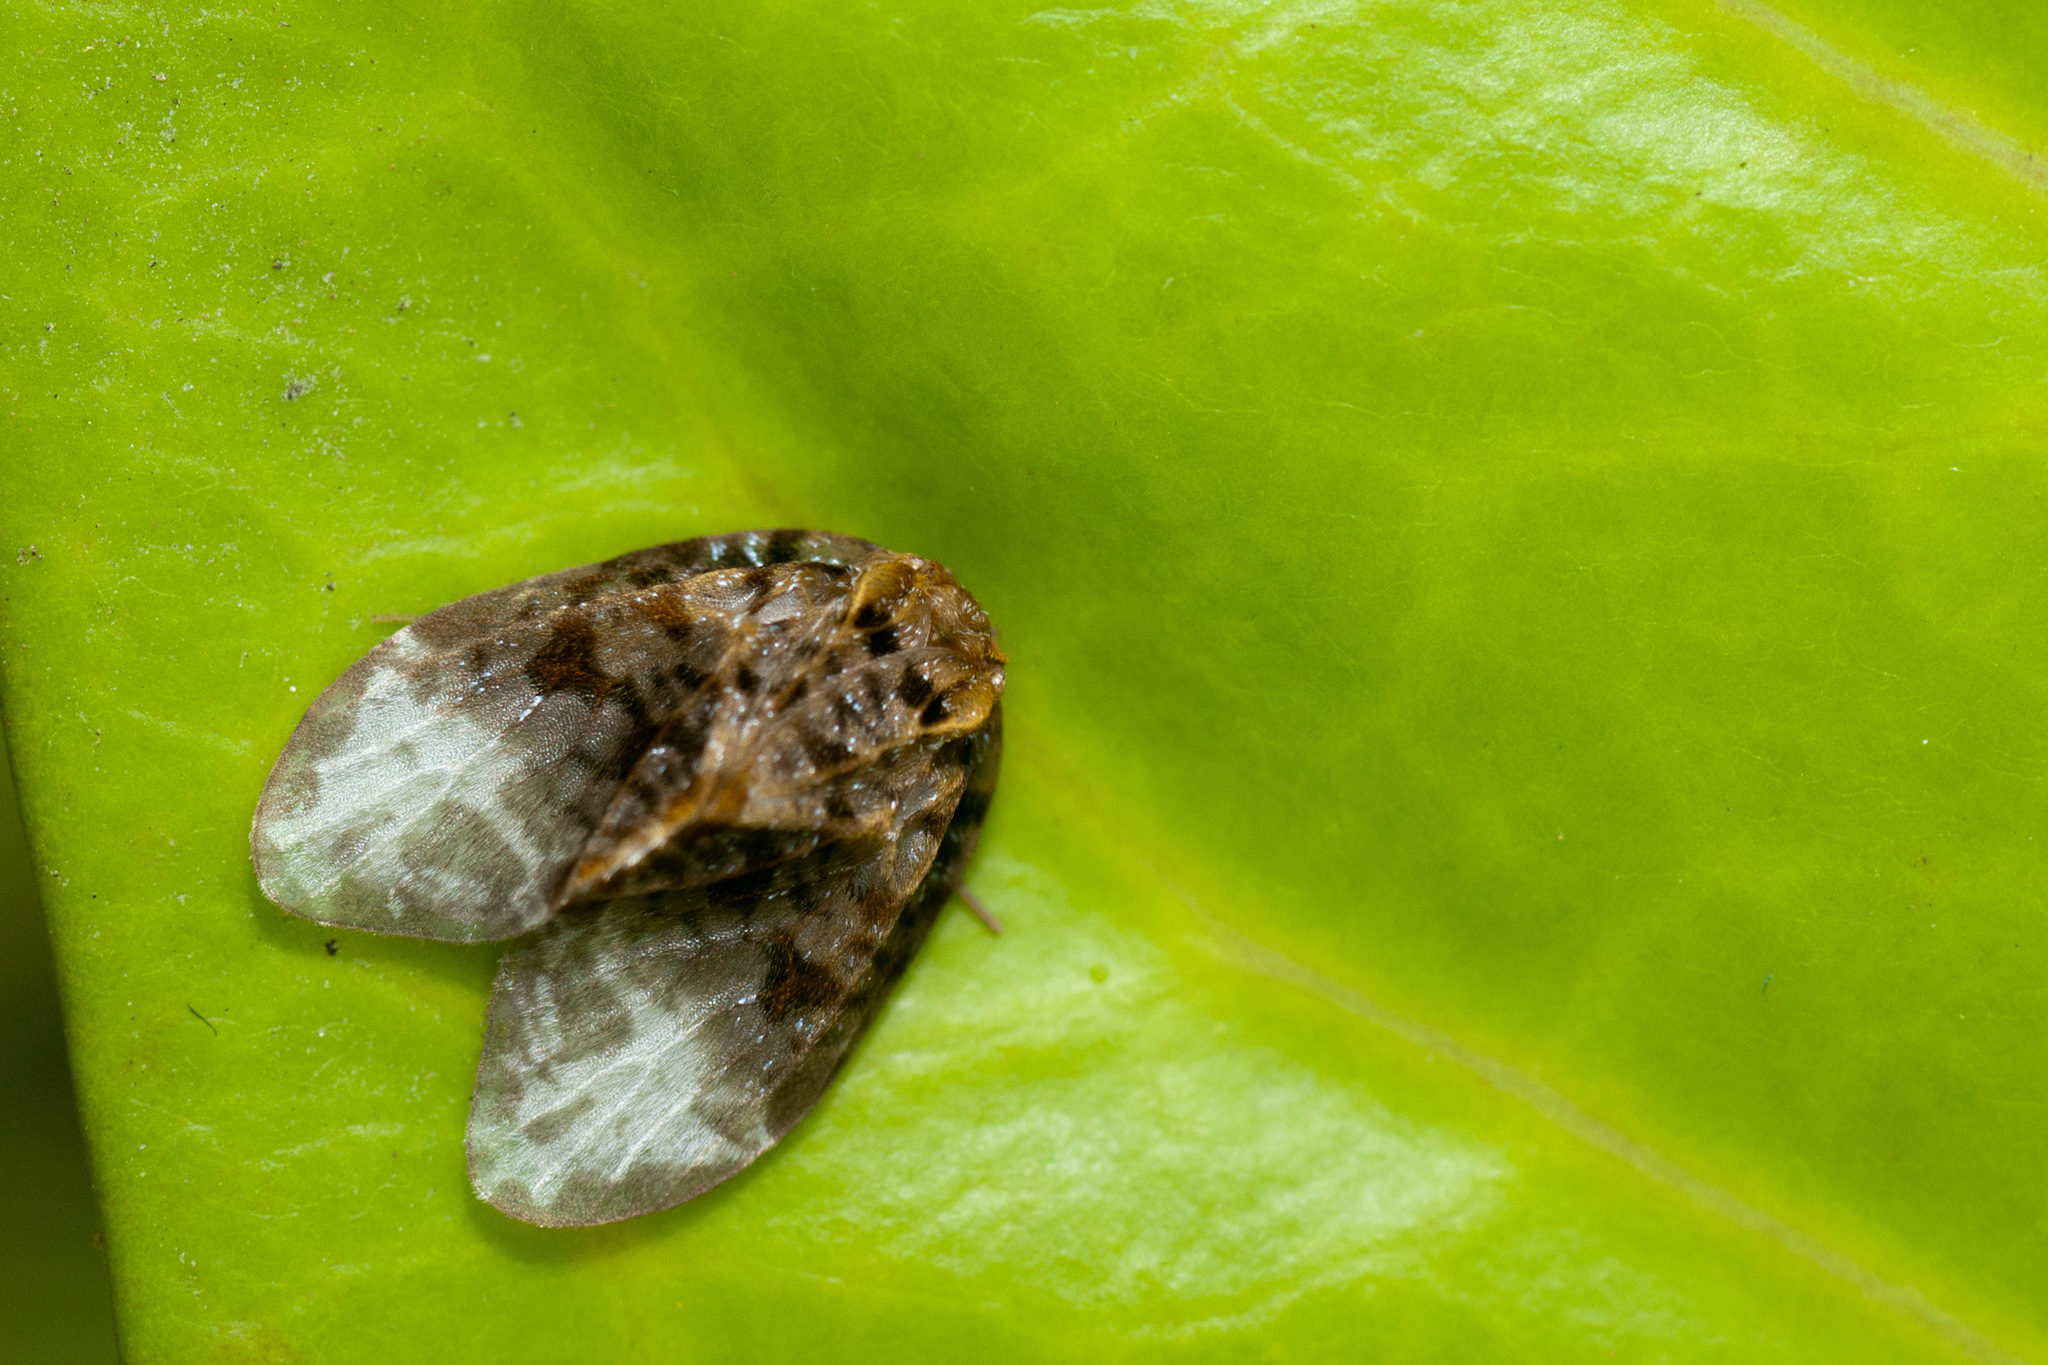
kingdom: Animalia
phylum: Arthropoda
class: Insecta
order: Lepidoptera
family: Neopseustidae
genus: Neopseustis
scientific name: Neopseustis meyricki
